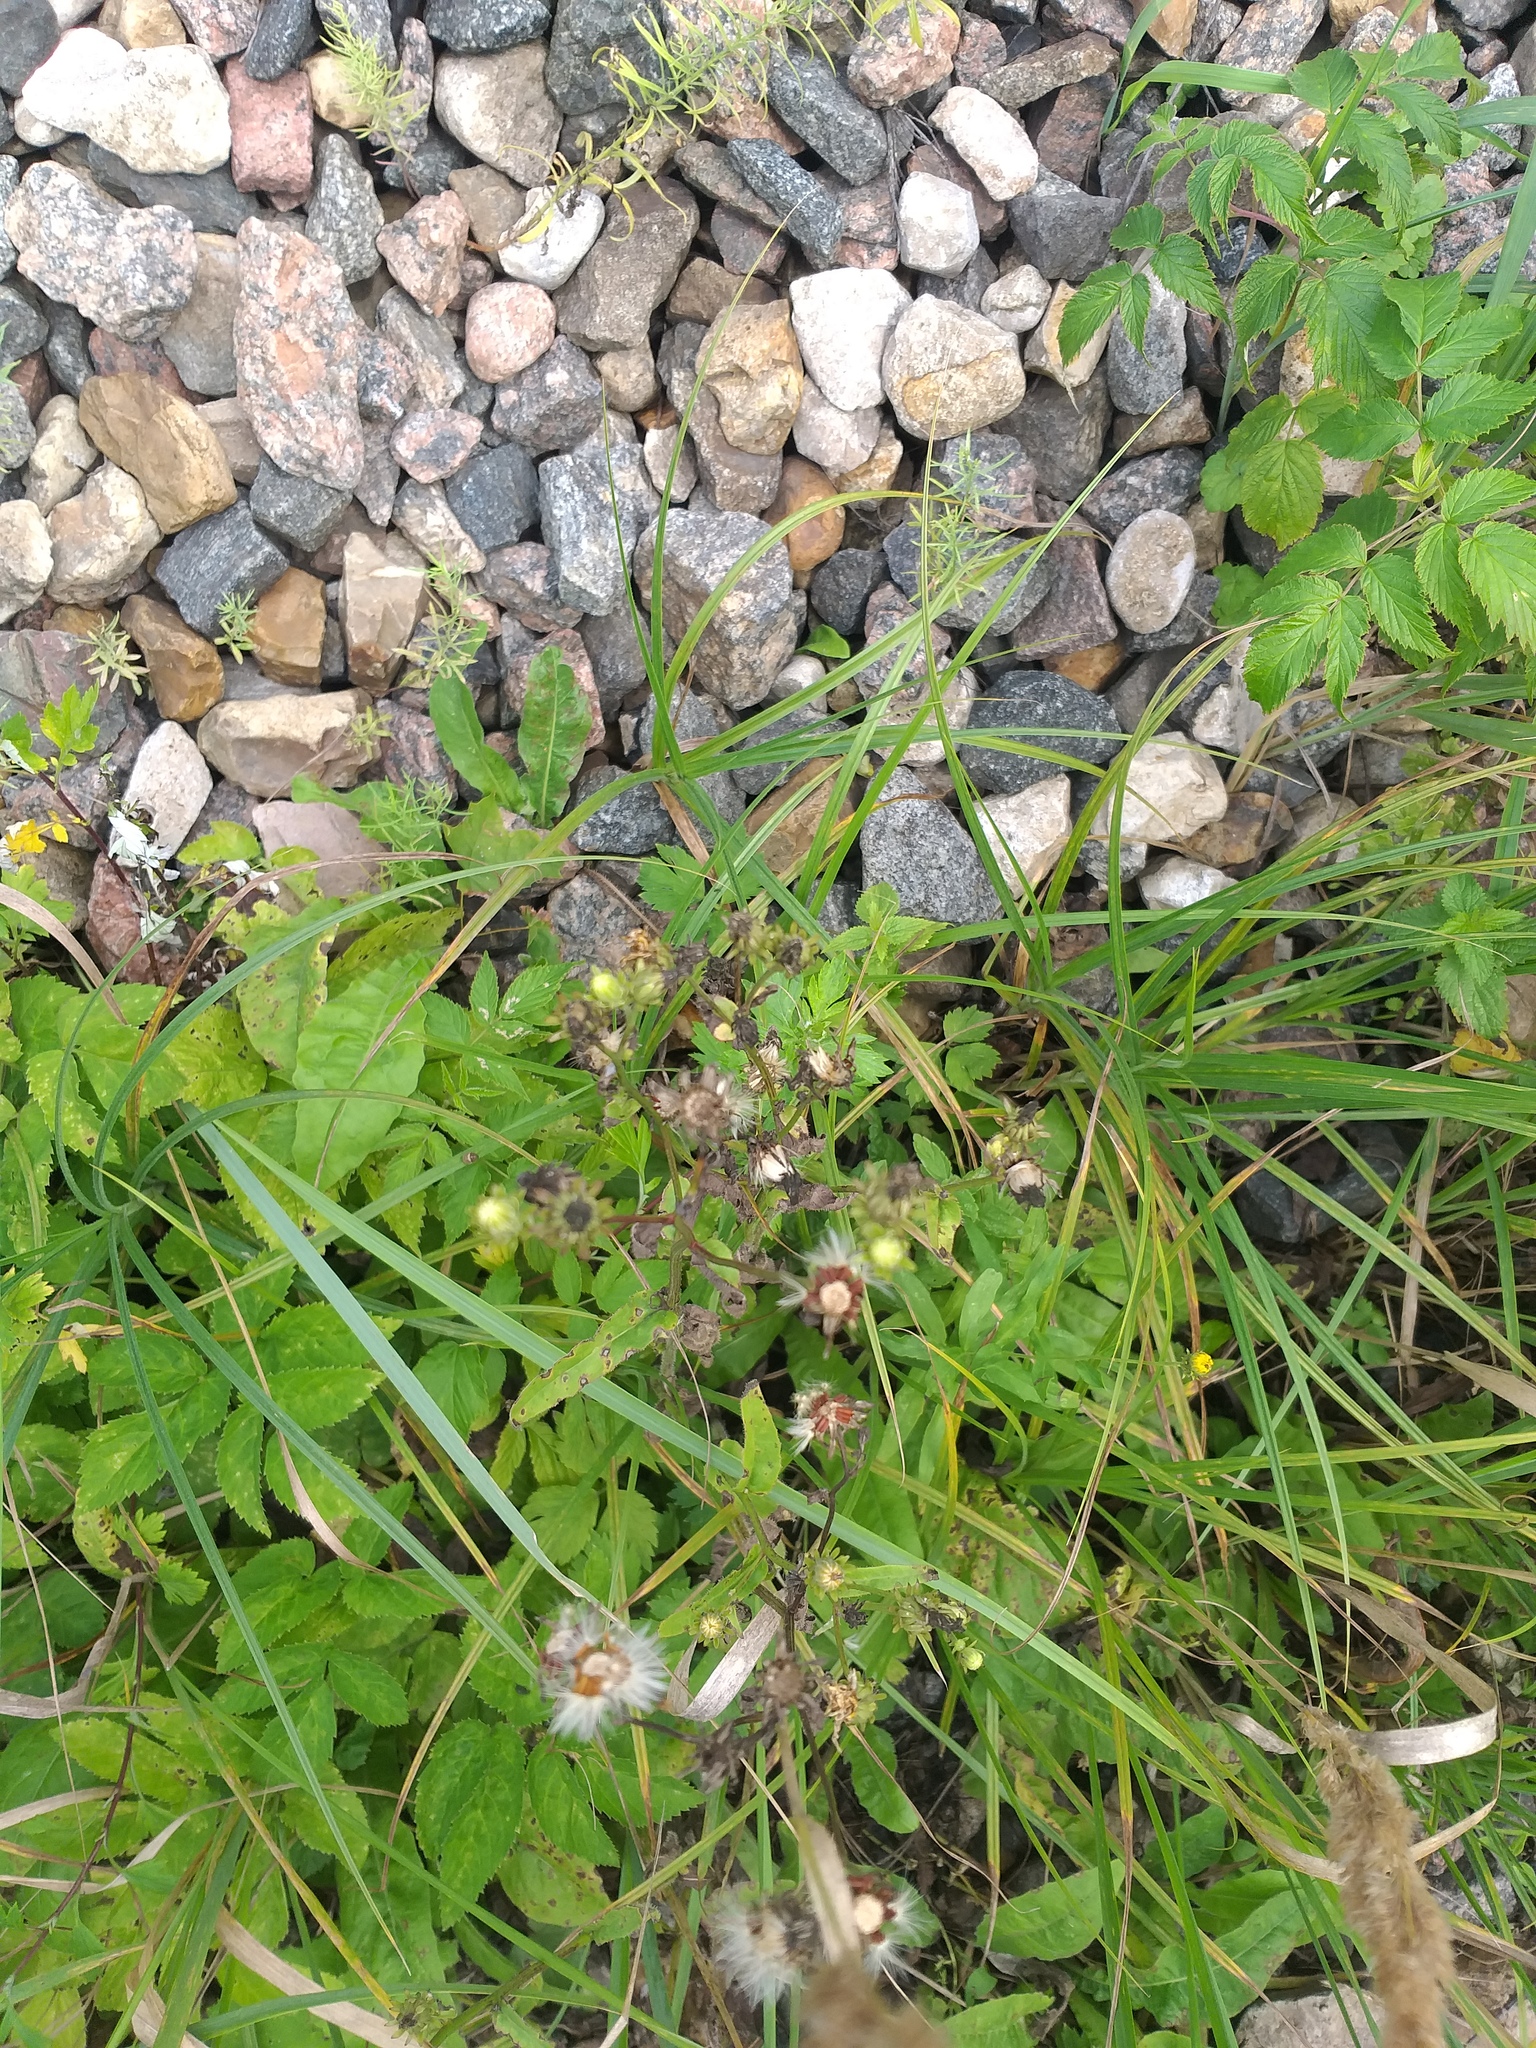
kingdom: Plantae
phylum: Tracheophyta
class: Magnoliopsida
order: Asterales
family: Asteraceae
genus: Picris
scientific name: Picris hieracioides
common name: Hawkweed oxtongue
